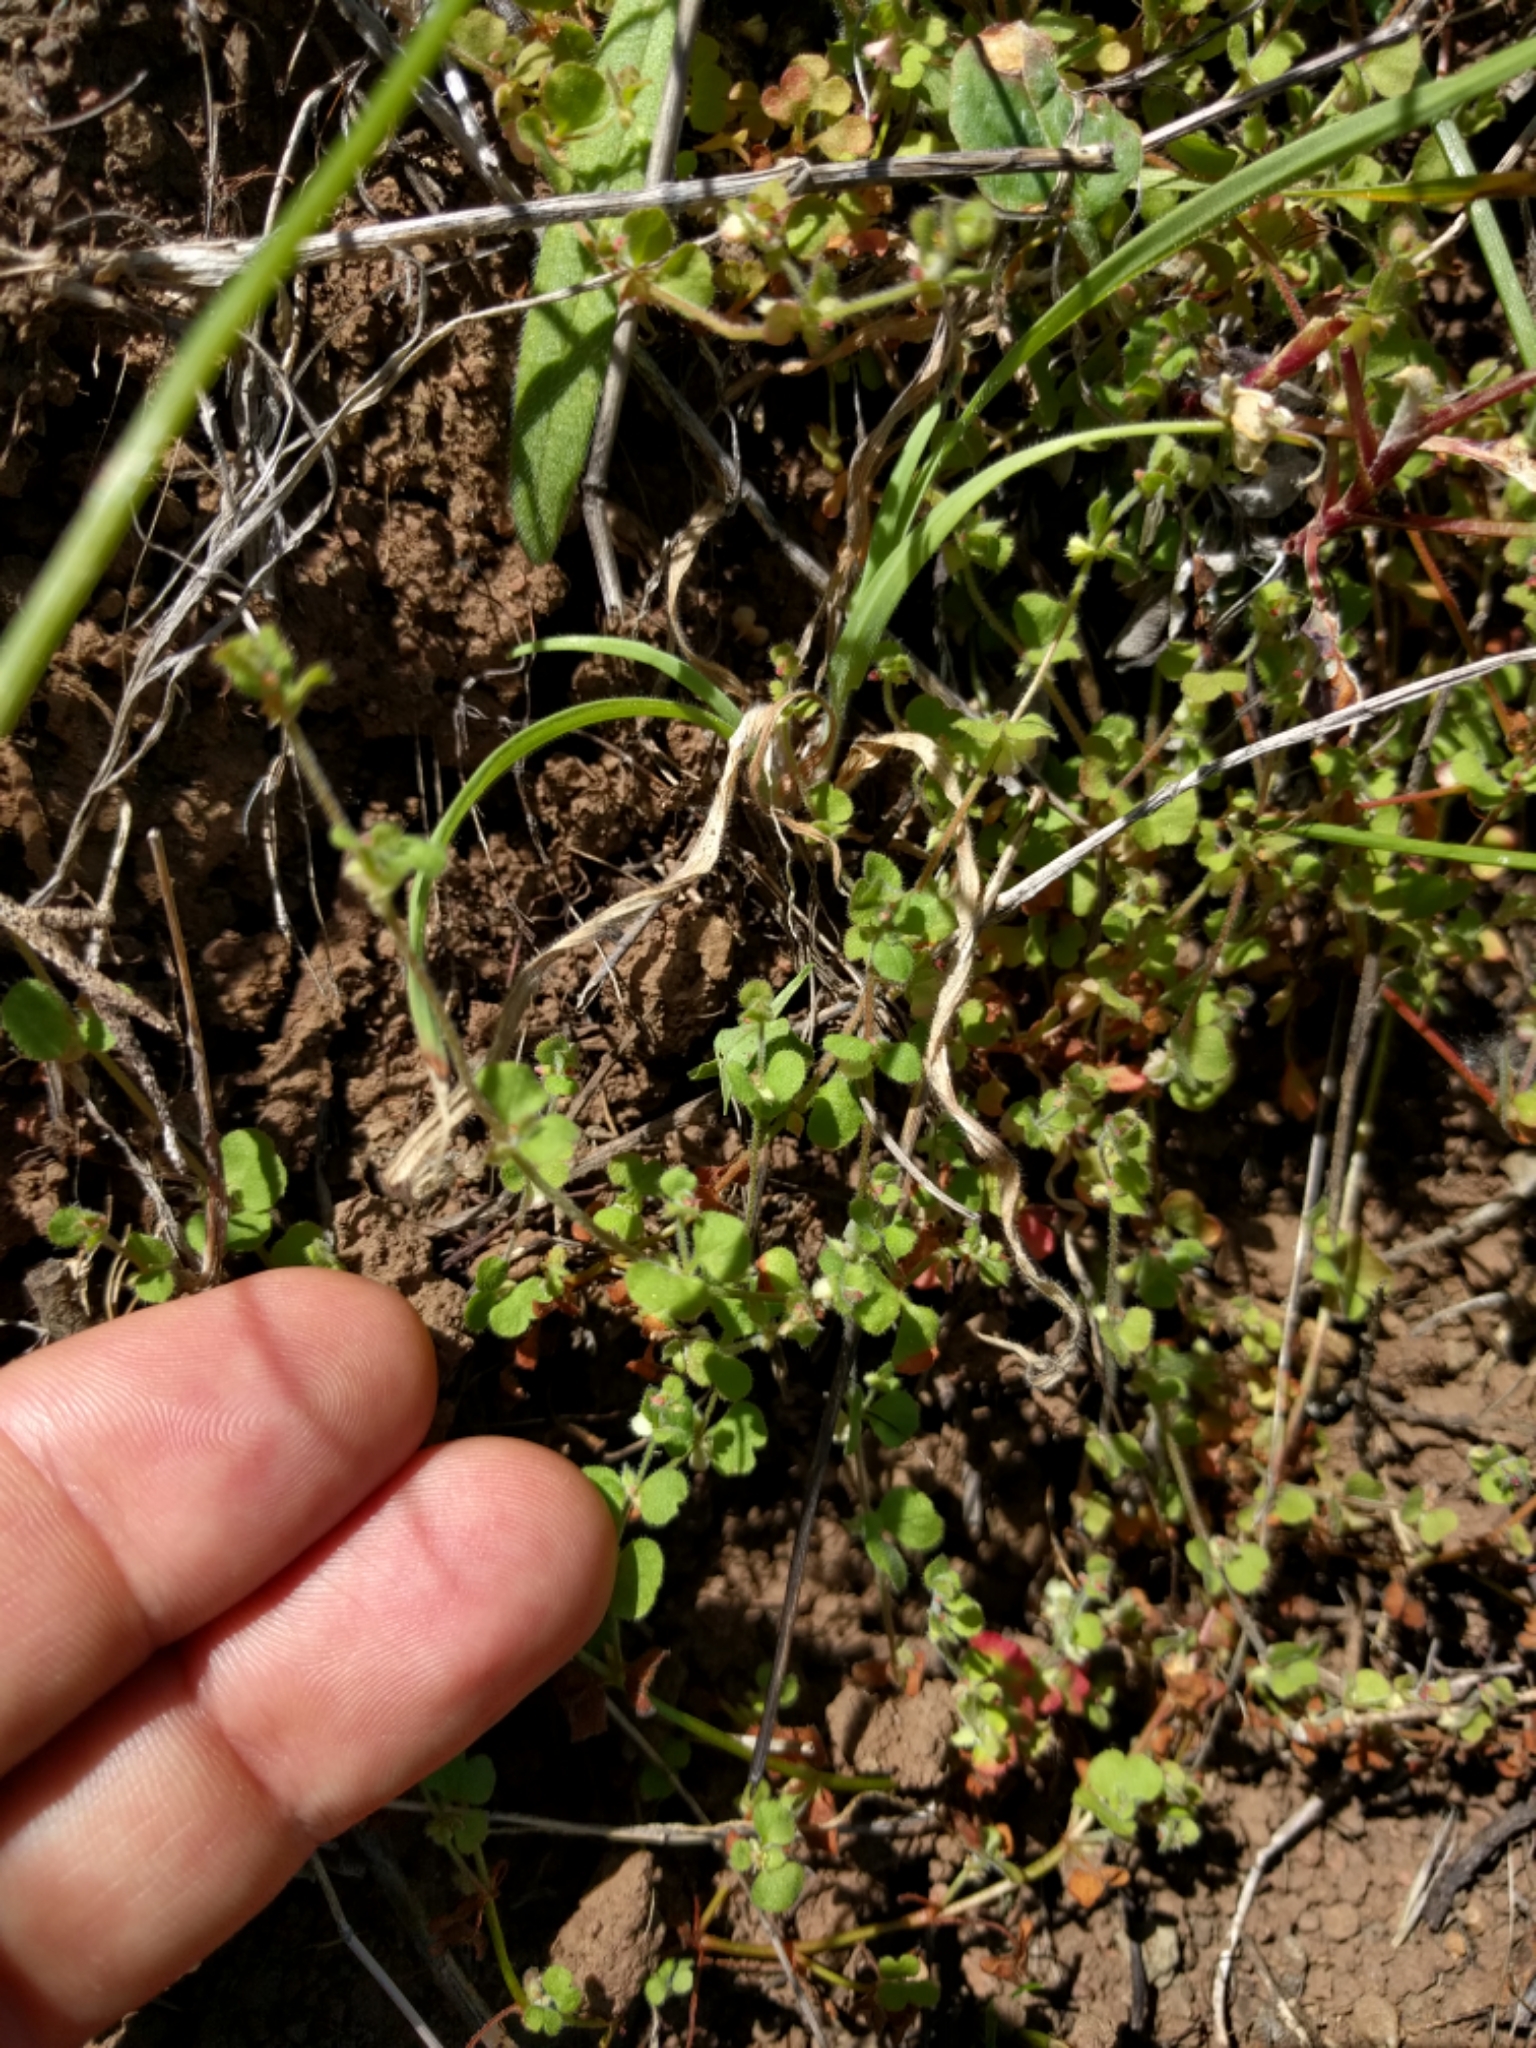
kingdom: Plantae
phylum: Tracheophyta
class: Magnoliopsida
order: Caryophyllales
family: Polygonaceae
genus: Pterostegia
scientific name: Pterostegia drymarioides
